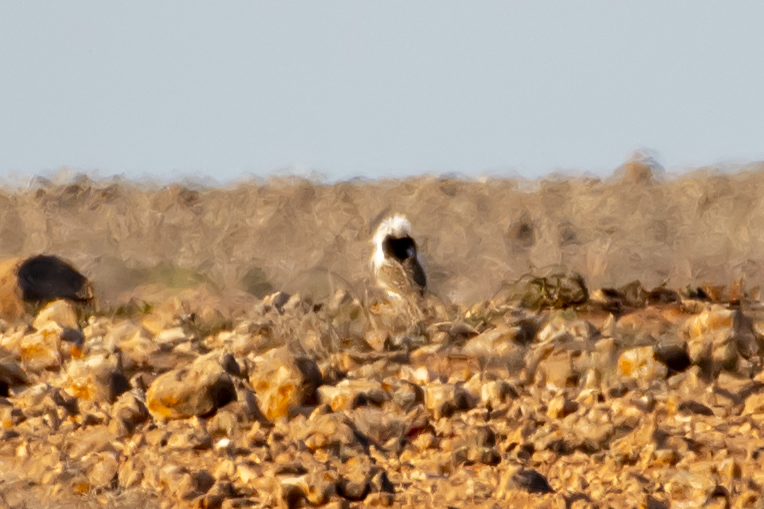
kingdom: Animalia
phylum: Chordata
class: Aves
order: Otidiformes
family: Otididae
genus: Chlamydotis
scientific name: Chlamydotis undulata
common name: Houbara bustard
